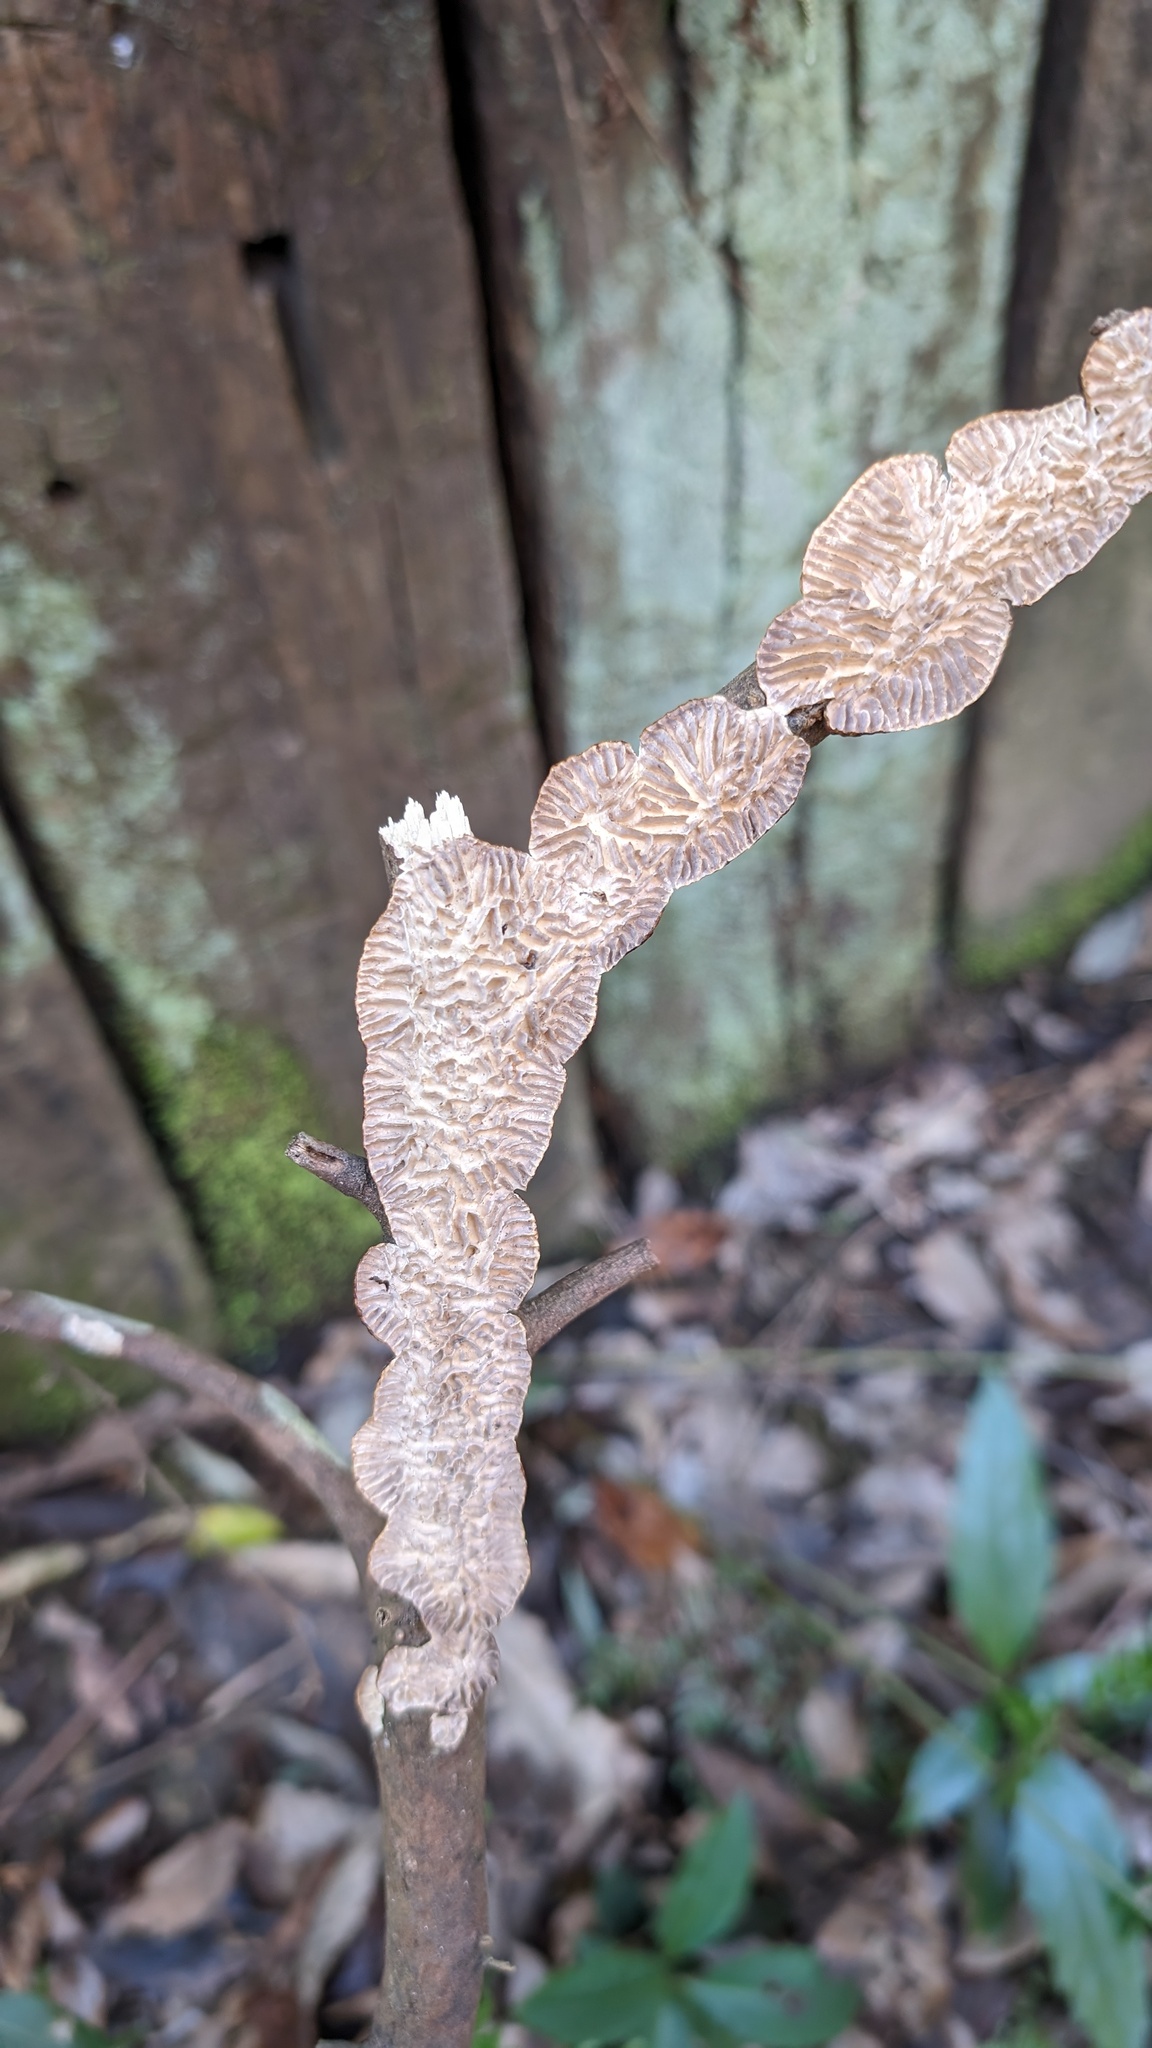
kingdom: Fungi
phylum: Basidiomycota
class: Agaricomycetes
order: Polyporales
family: Polyporaceae
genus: Lenzites
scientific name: Lenzites styracinus
